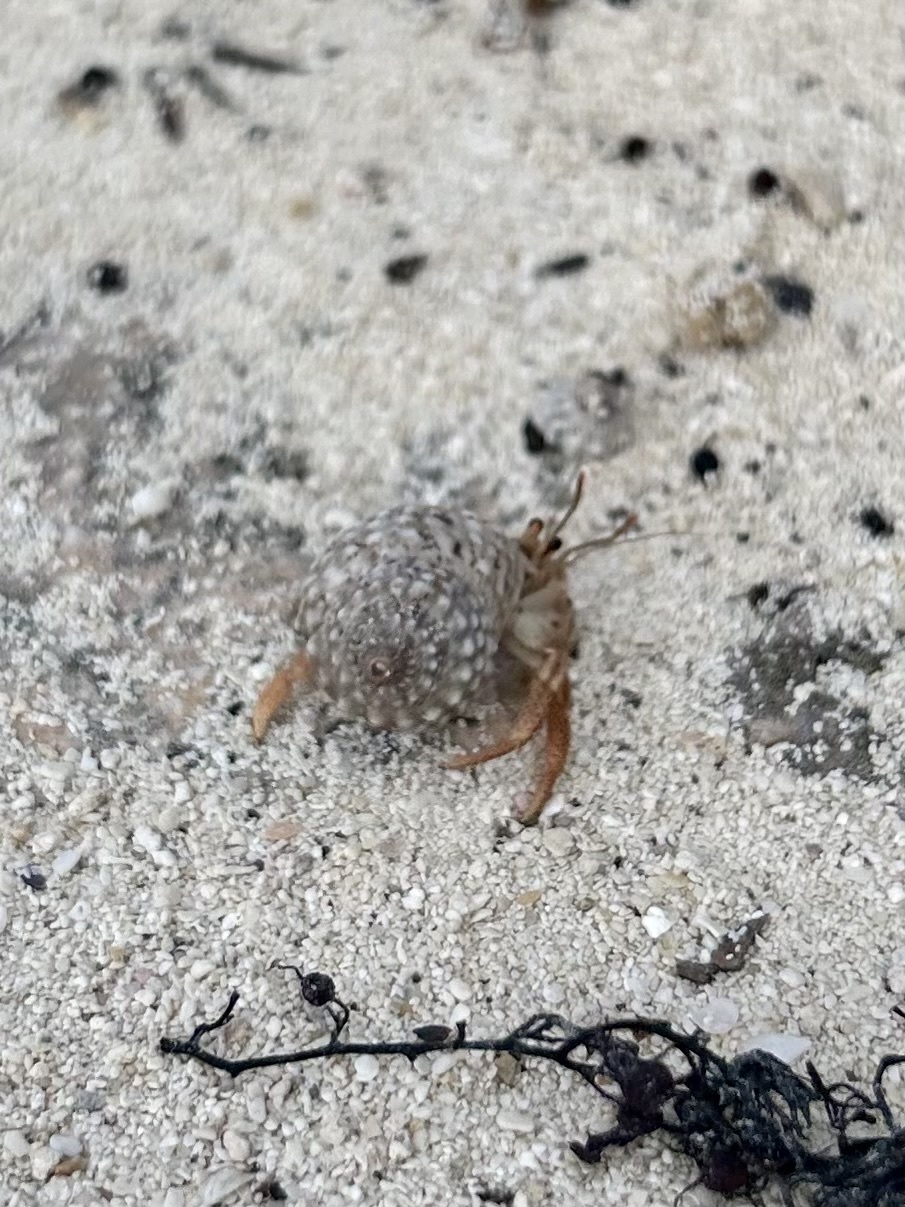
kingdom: Animalia
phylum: Arthropoda
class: Malacostraca
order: Decapoda
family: Coenobitidae
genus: Coenobita
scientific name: Coenobita clypeatus
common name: Caribbean hermit crab
